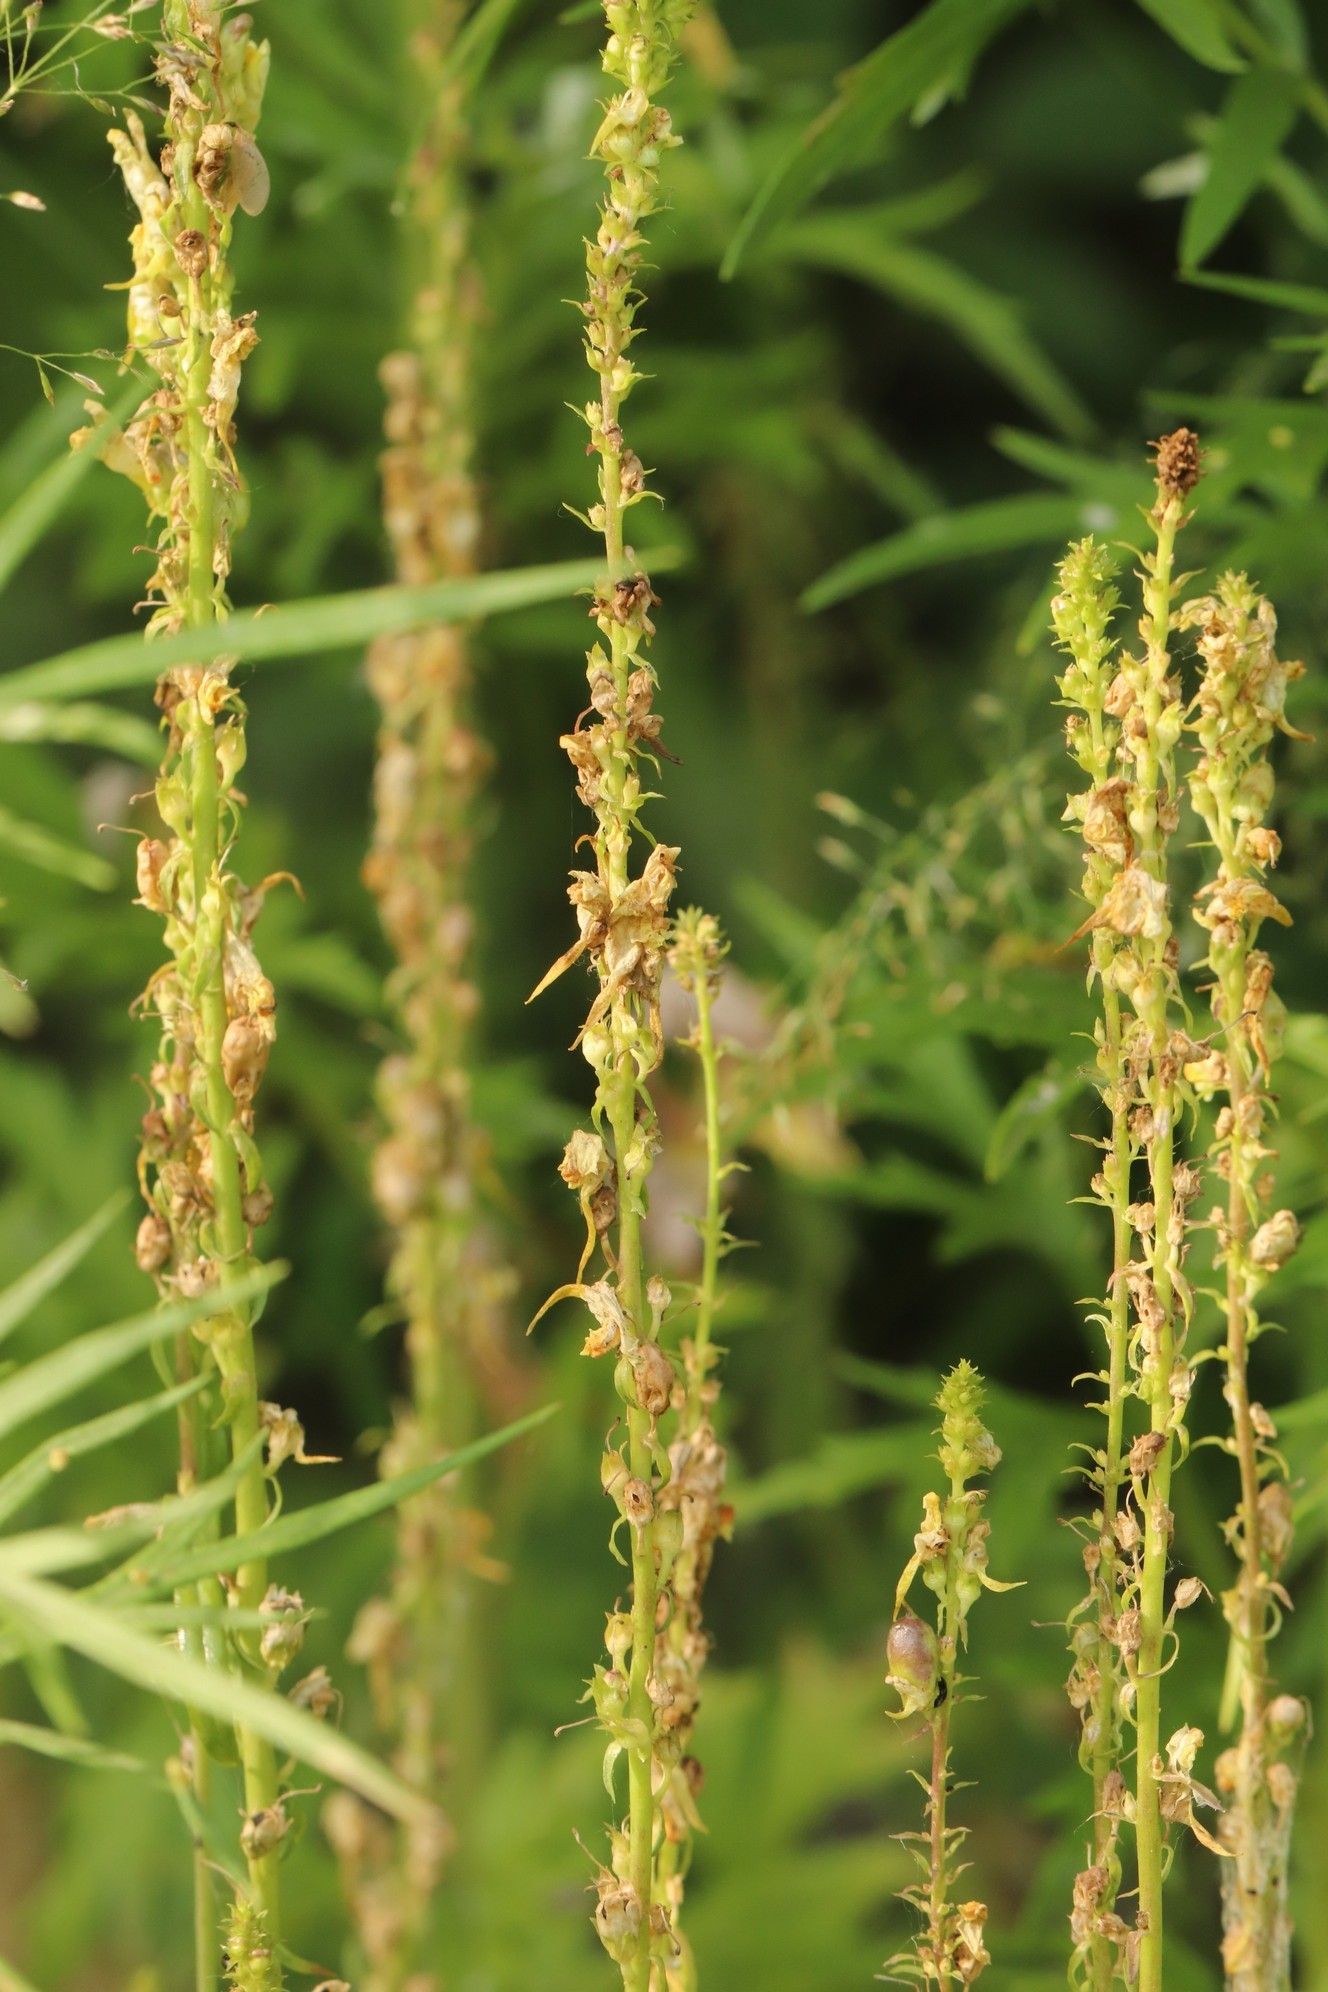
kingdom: Plantae
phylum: Tracheophyta
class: Magnoliopsida
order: Lamiales
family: Plantaginaceae
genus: Linaria
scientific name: Linaria vulgaris
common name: Butter and eggs
